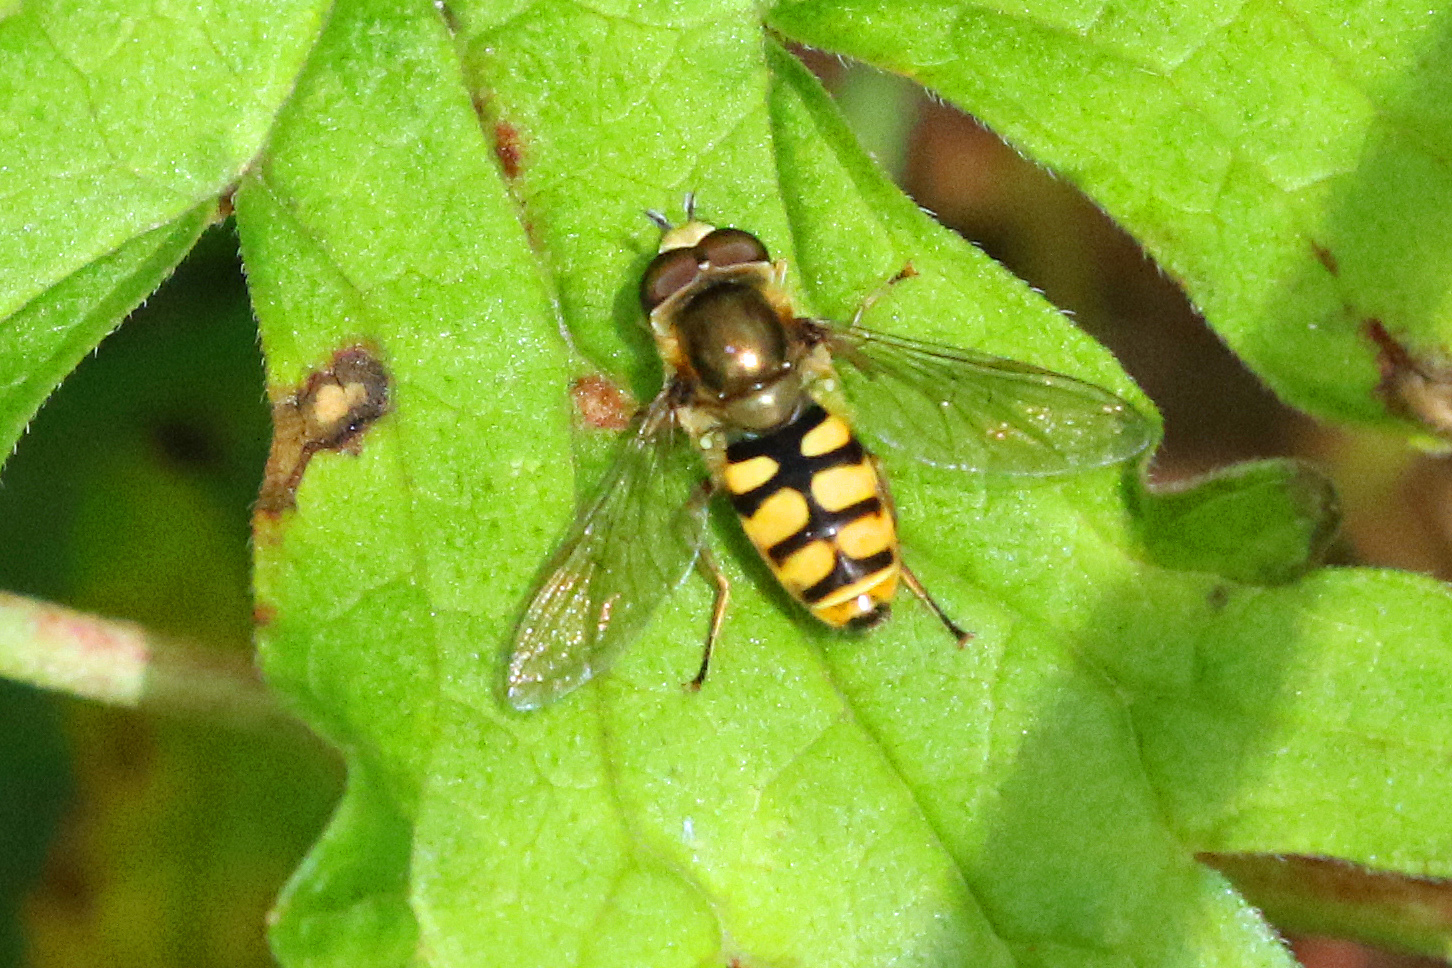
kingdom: Animalia
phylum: Arthropoda
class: Insecta
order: Diptera
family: Syrphidae
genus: Eupeodes
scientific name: Eupeodes corollae
